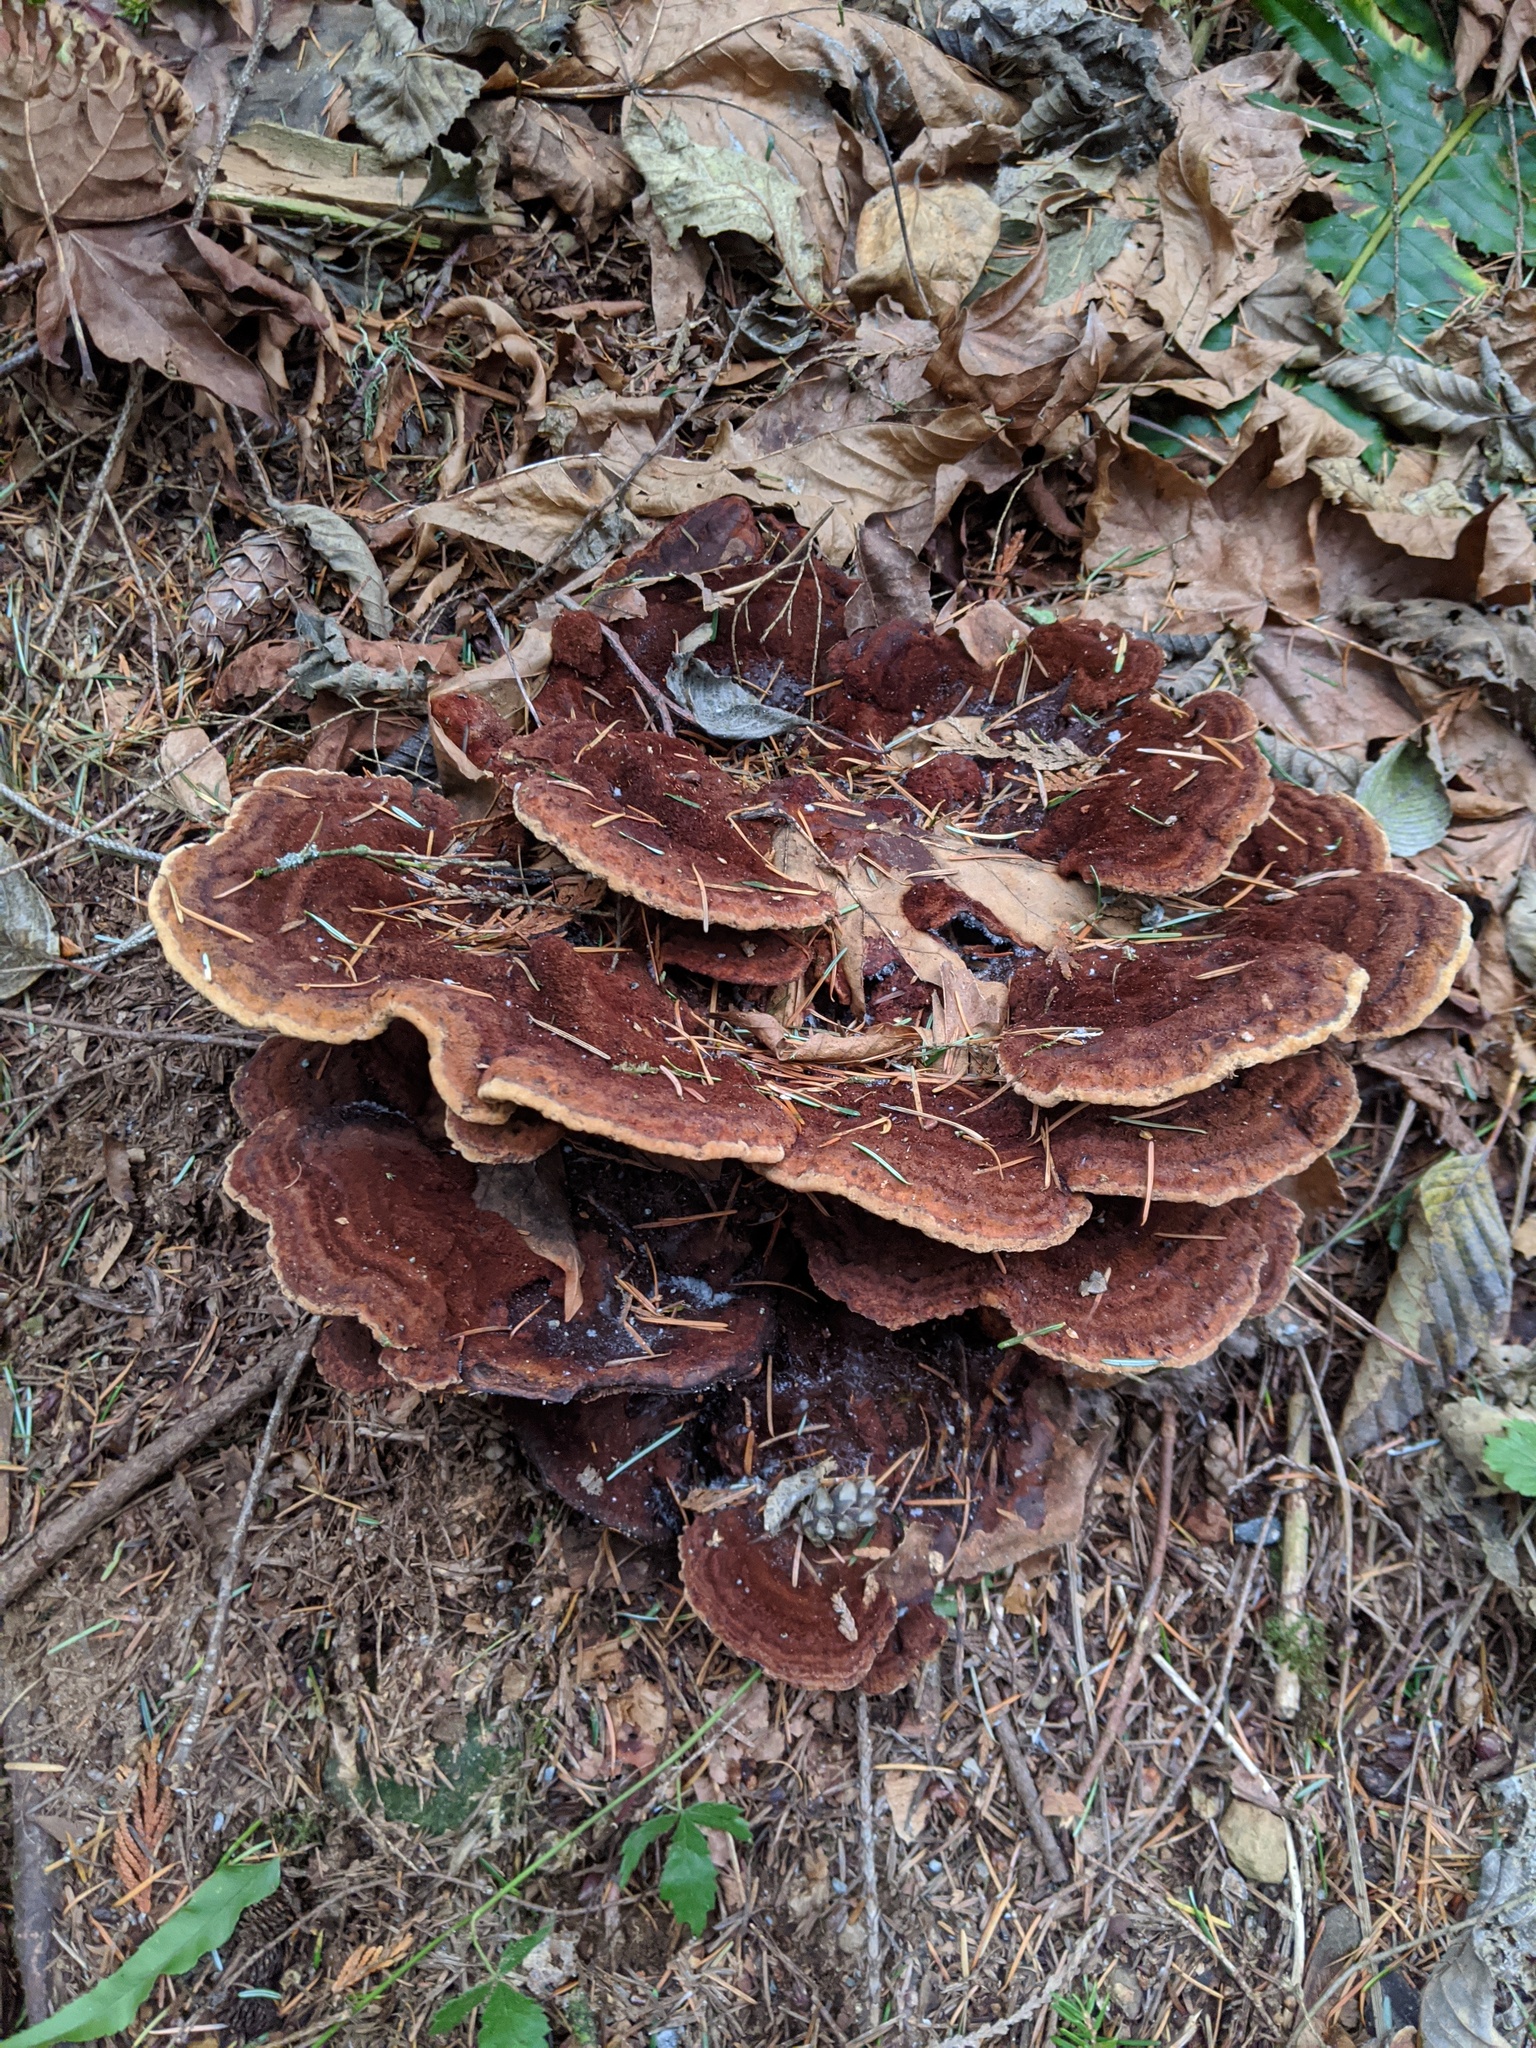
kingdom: Fungi
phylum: Basidiomycota
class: Agaricomycetes
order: Polyporales
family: Laetiporaceae
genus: Phaeolus
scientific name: Phaeolus schweinitzii
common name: Dyer's mazegill
